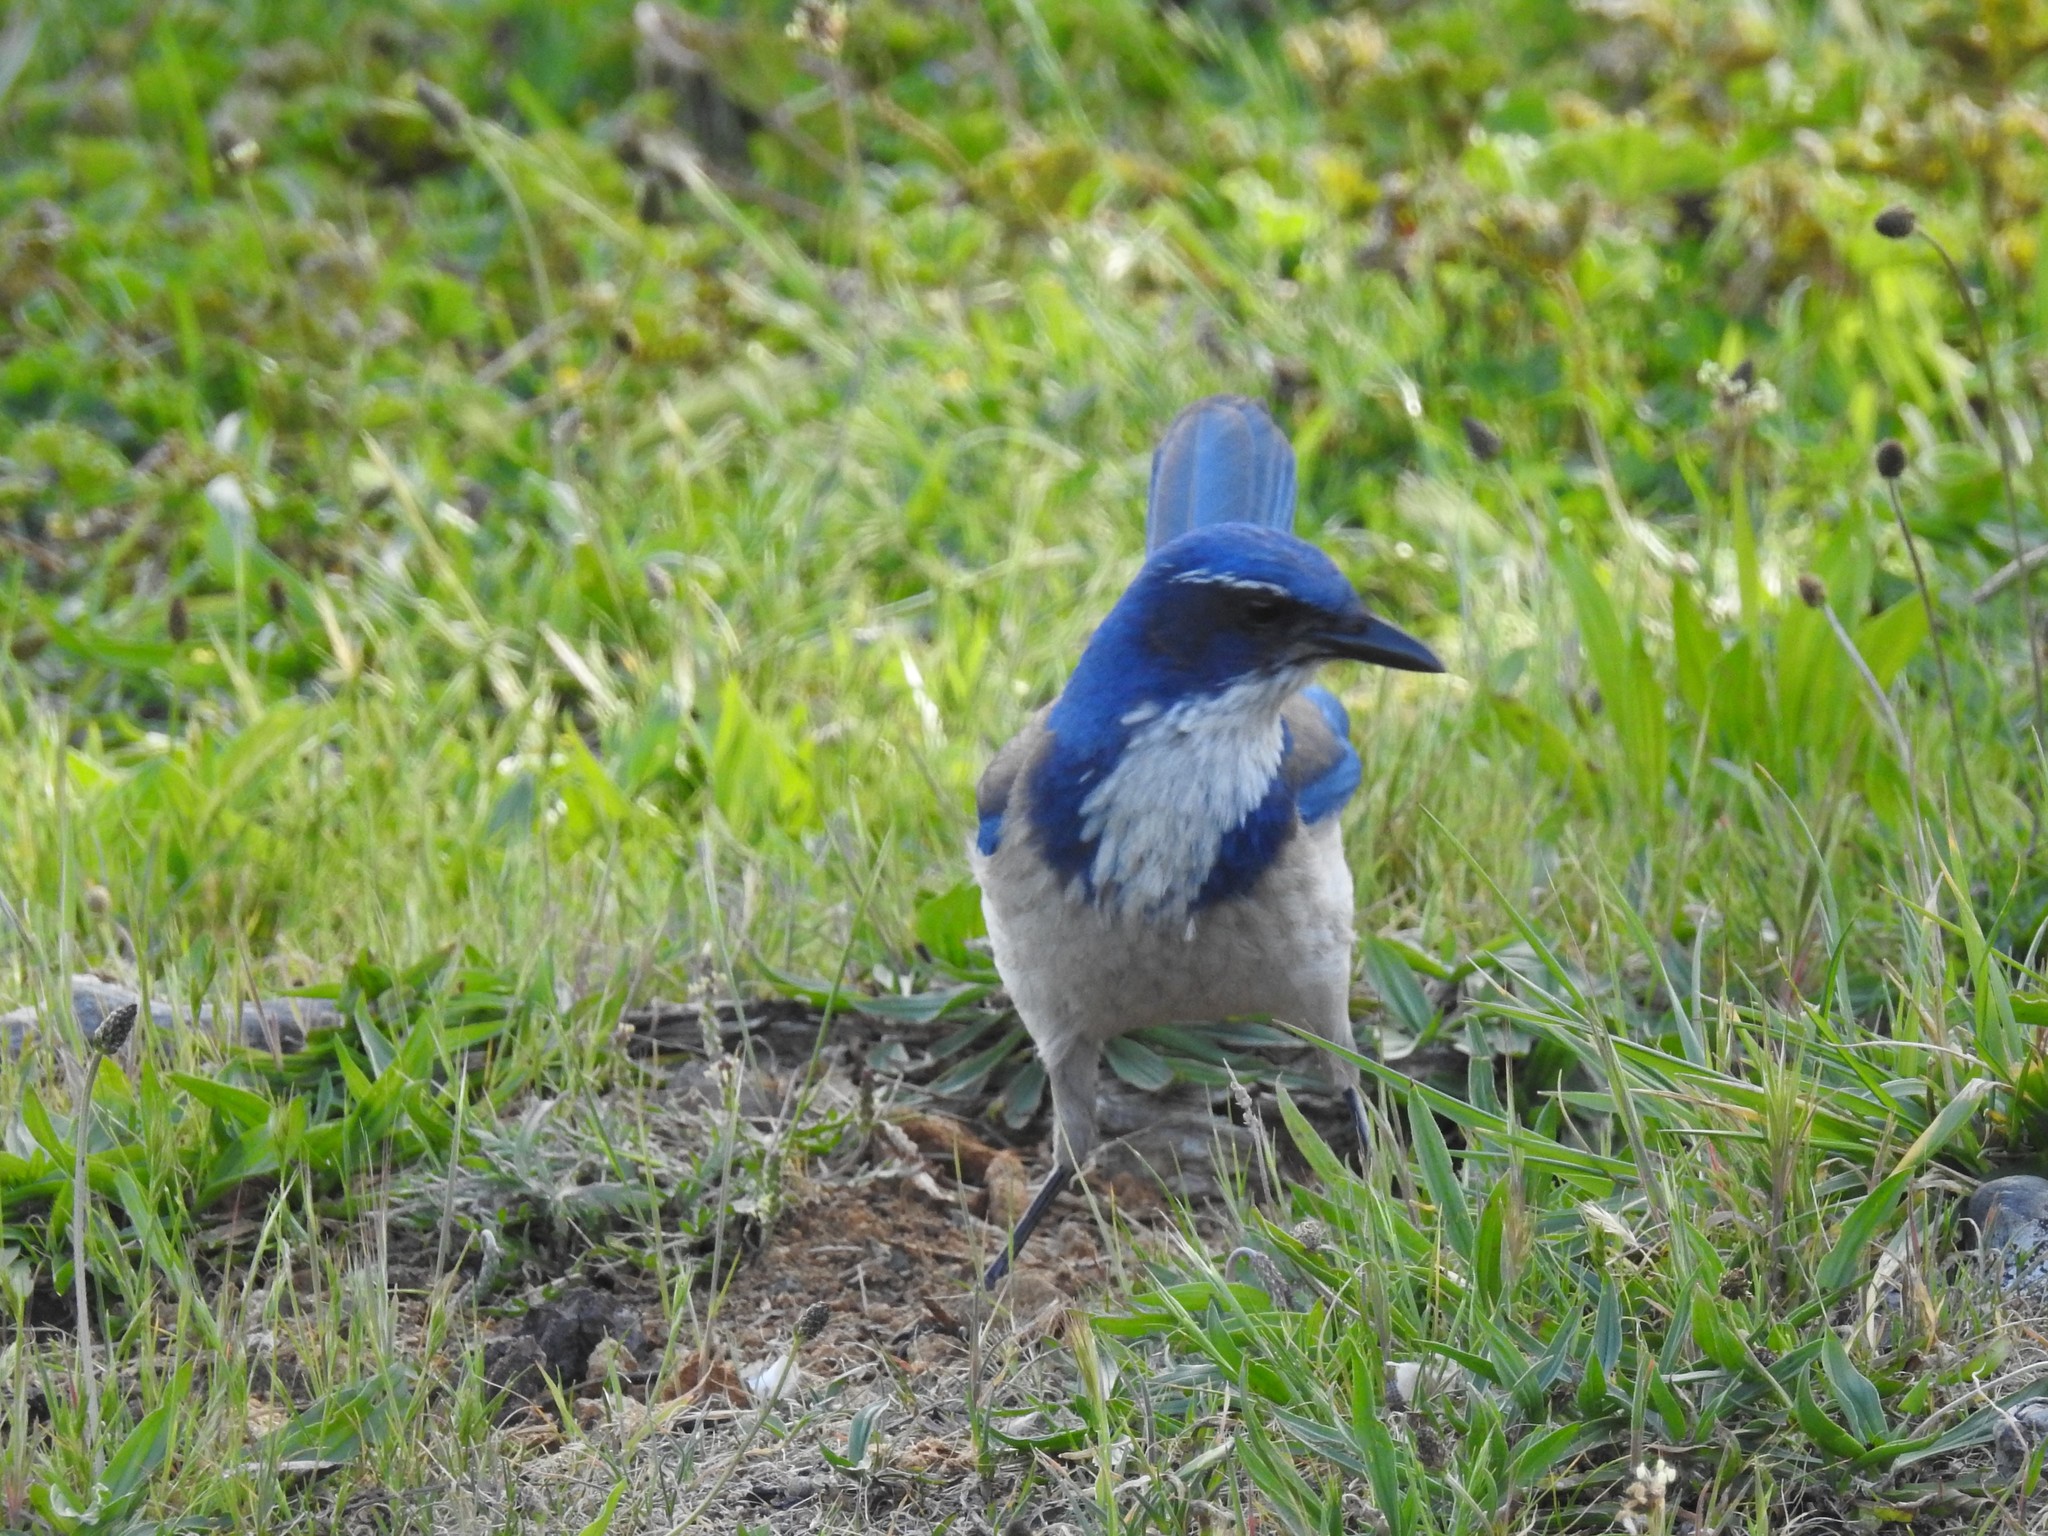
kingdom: Animalia
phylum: Chordata
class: Aves
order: Passeriformes
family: Corvidae
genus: Aphelocoma
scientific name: Aphelocoma californica
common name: California scrub-jay
